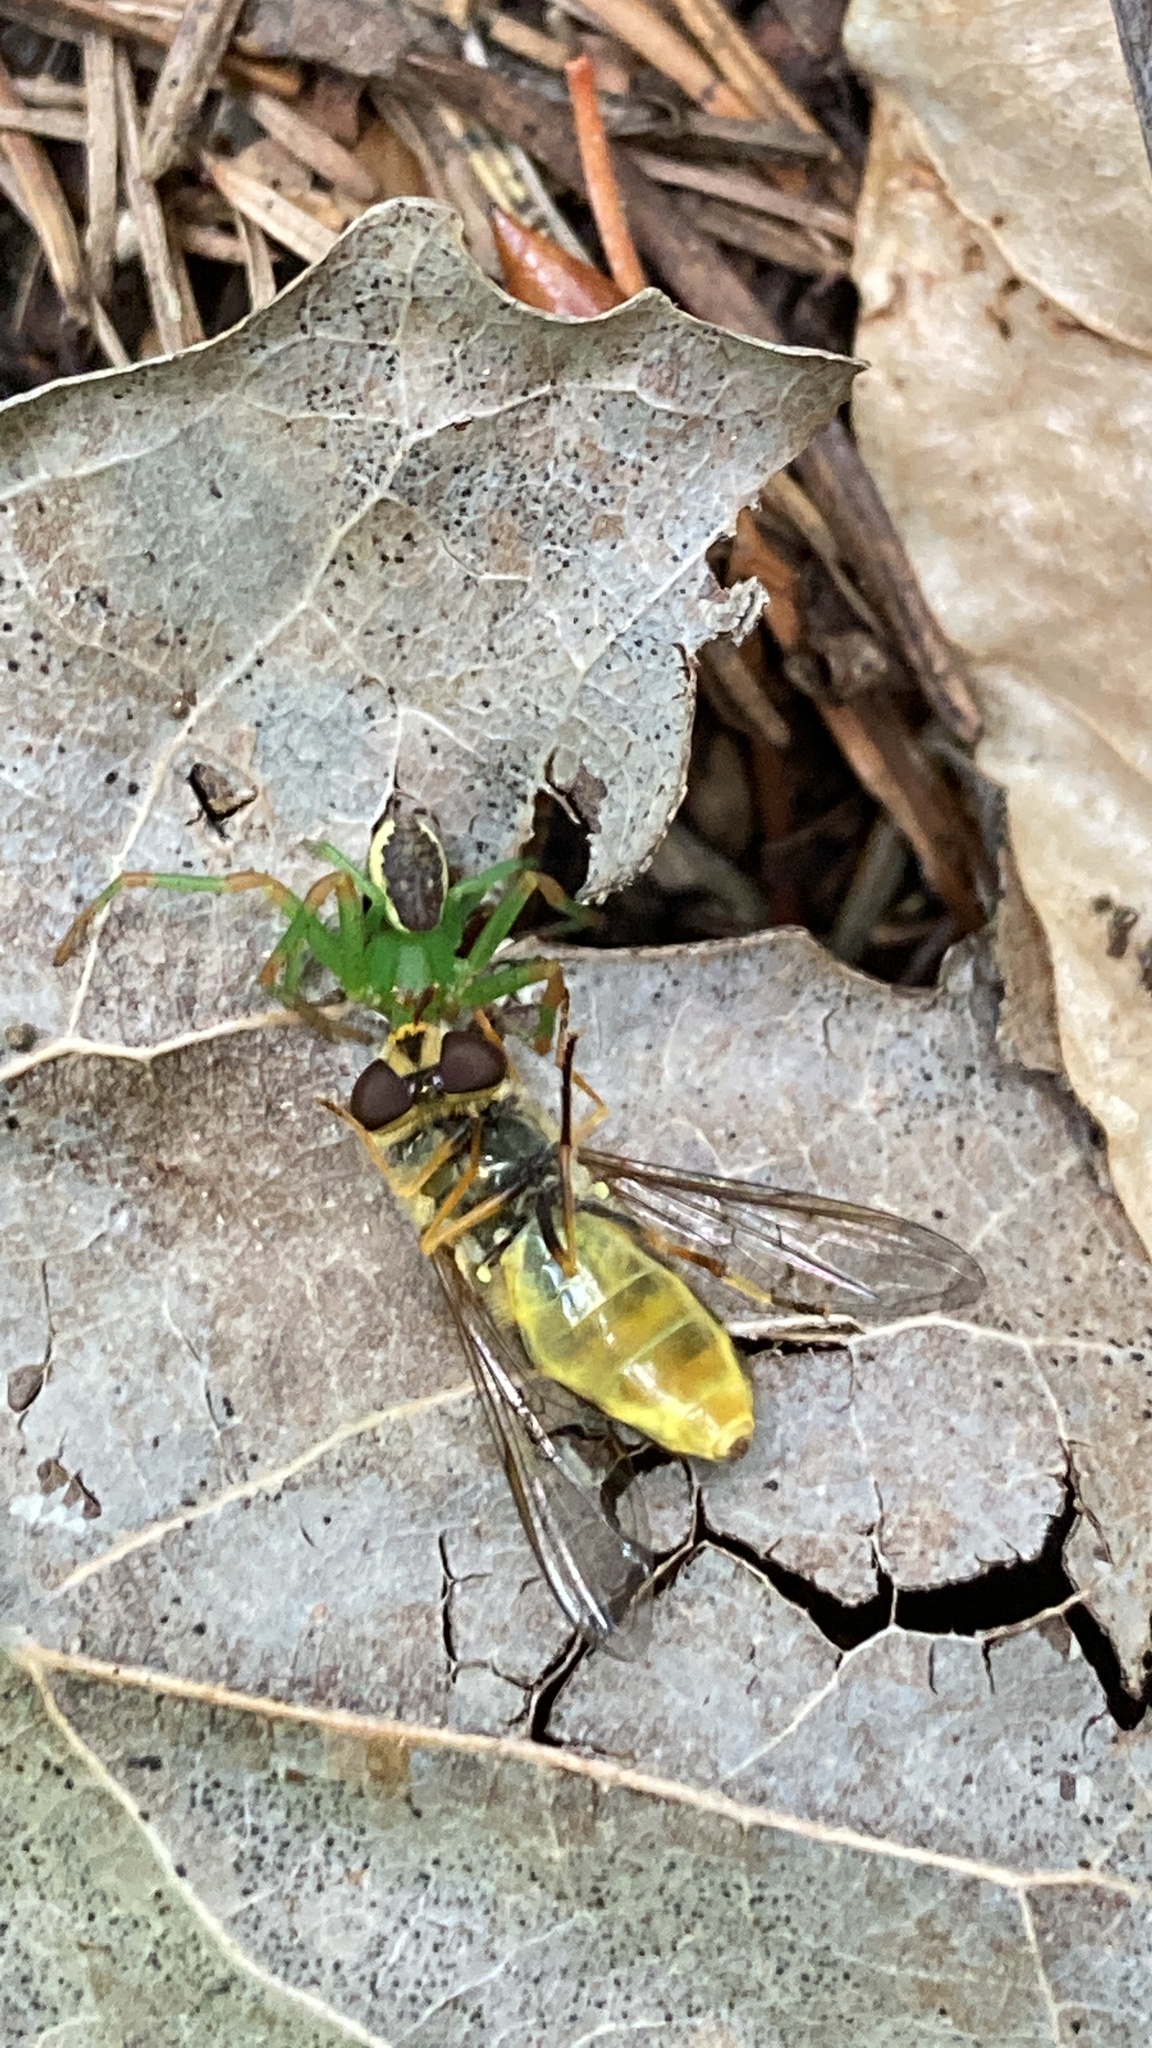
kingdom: Animalia
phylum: Arthropoda
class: Arachnida
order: Araneae
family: Thomisidae
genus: Diaea
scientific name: Diaea dorsata
